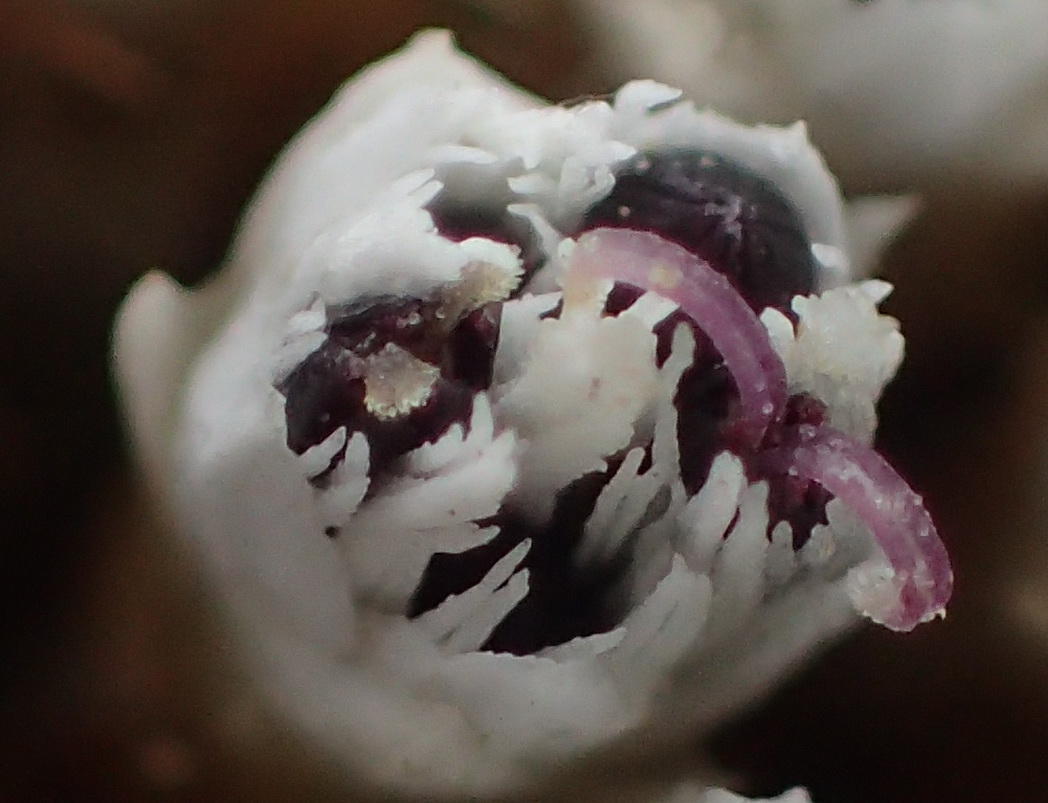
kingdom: Plantae
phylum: Tracheophyta
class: Magnoliopsida
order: Asterales
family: Asteraceae
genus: Metalasia
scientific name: Metalasia galpinii
